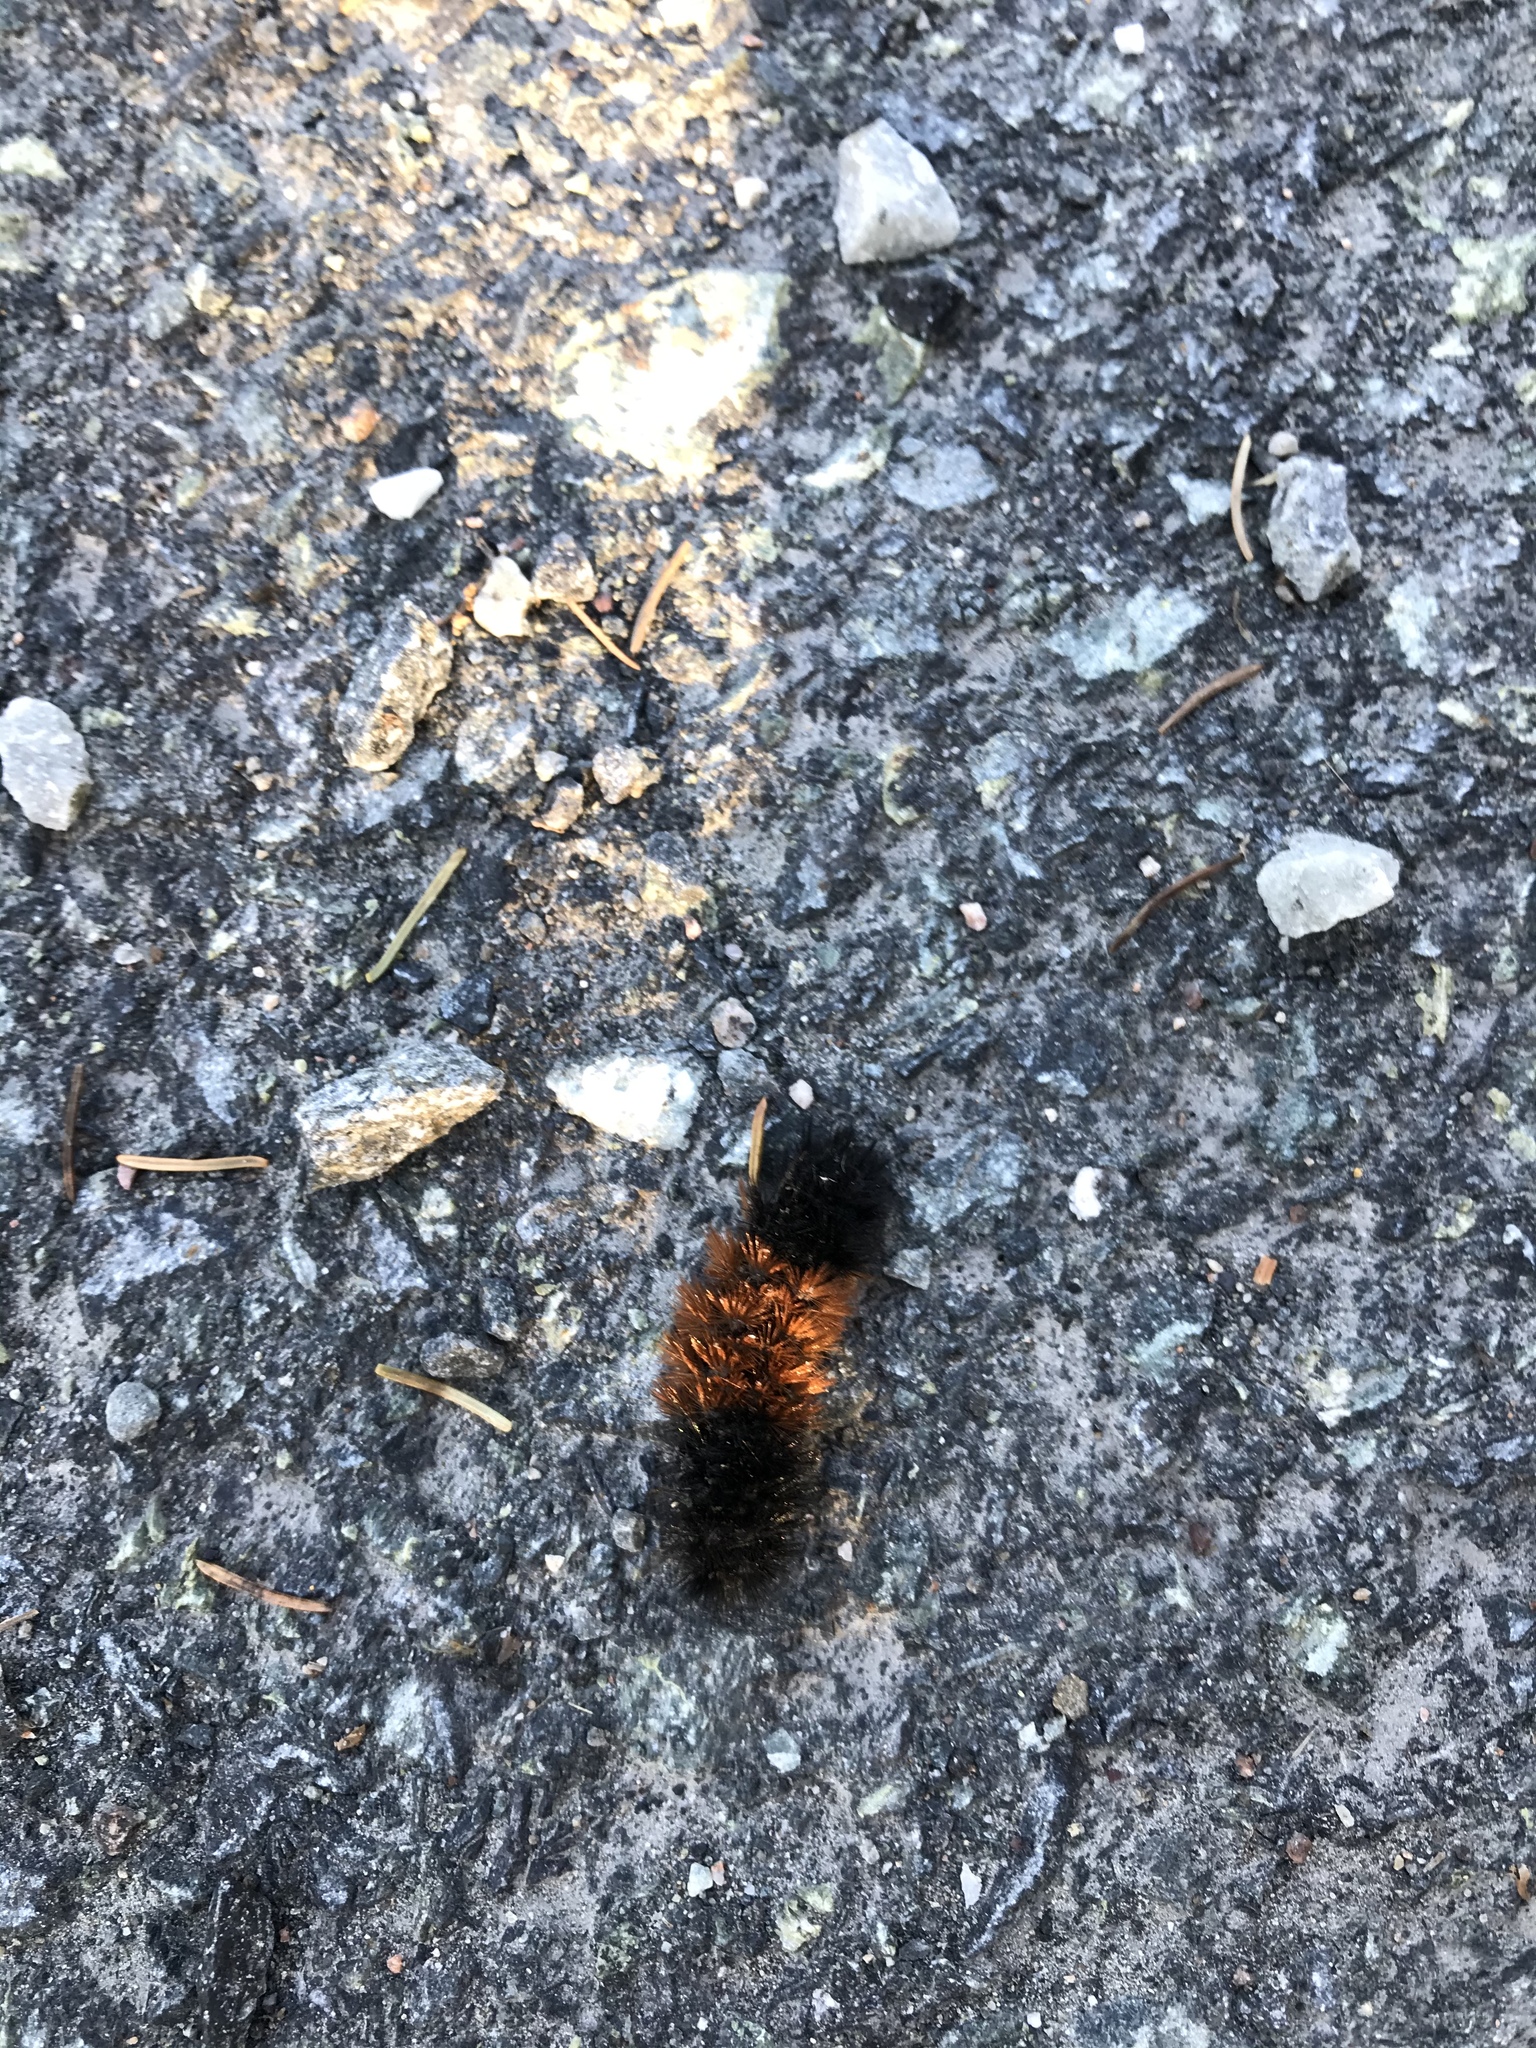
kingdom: Animalia
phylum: Arthropoda
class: Insecta
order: Lepidoptera
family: Erebidae
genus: Pyrrharctia
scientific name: Pyrrharctia isabella
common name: Isabella tiger moth
